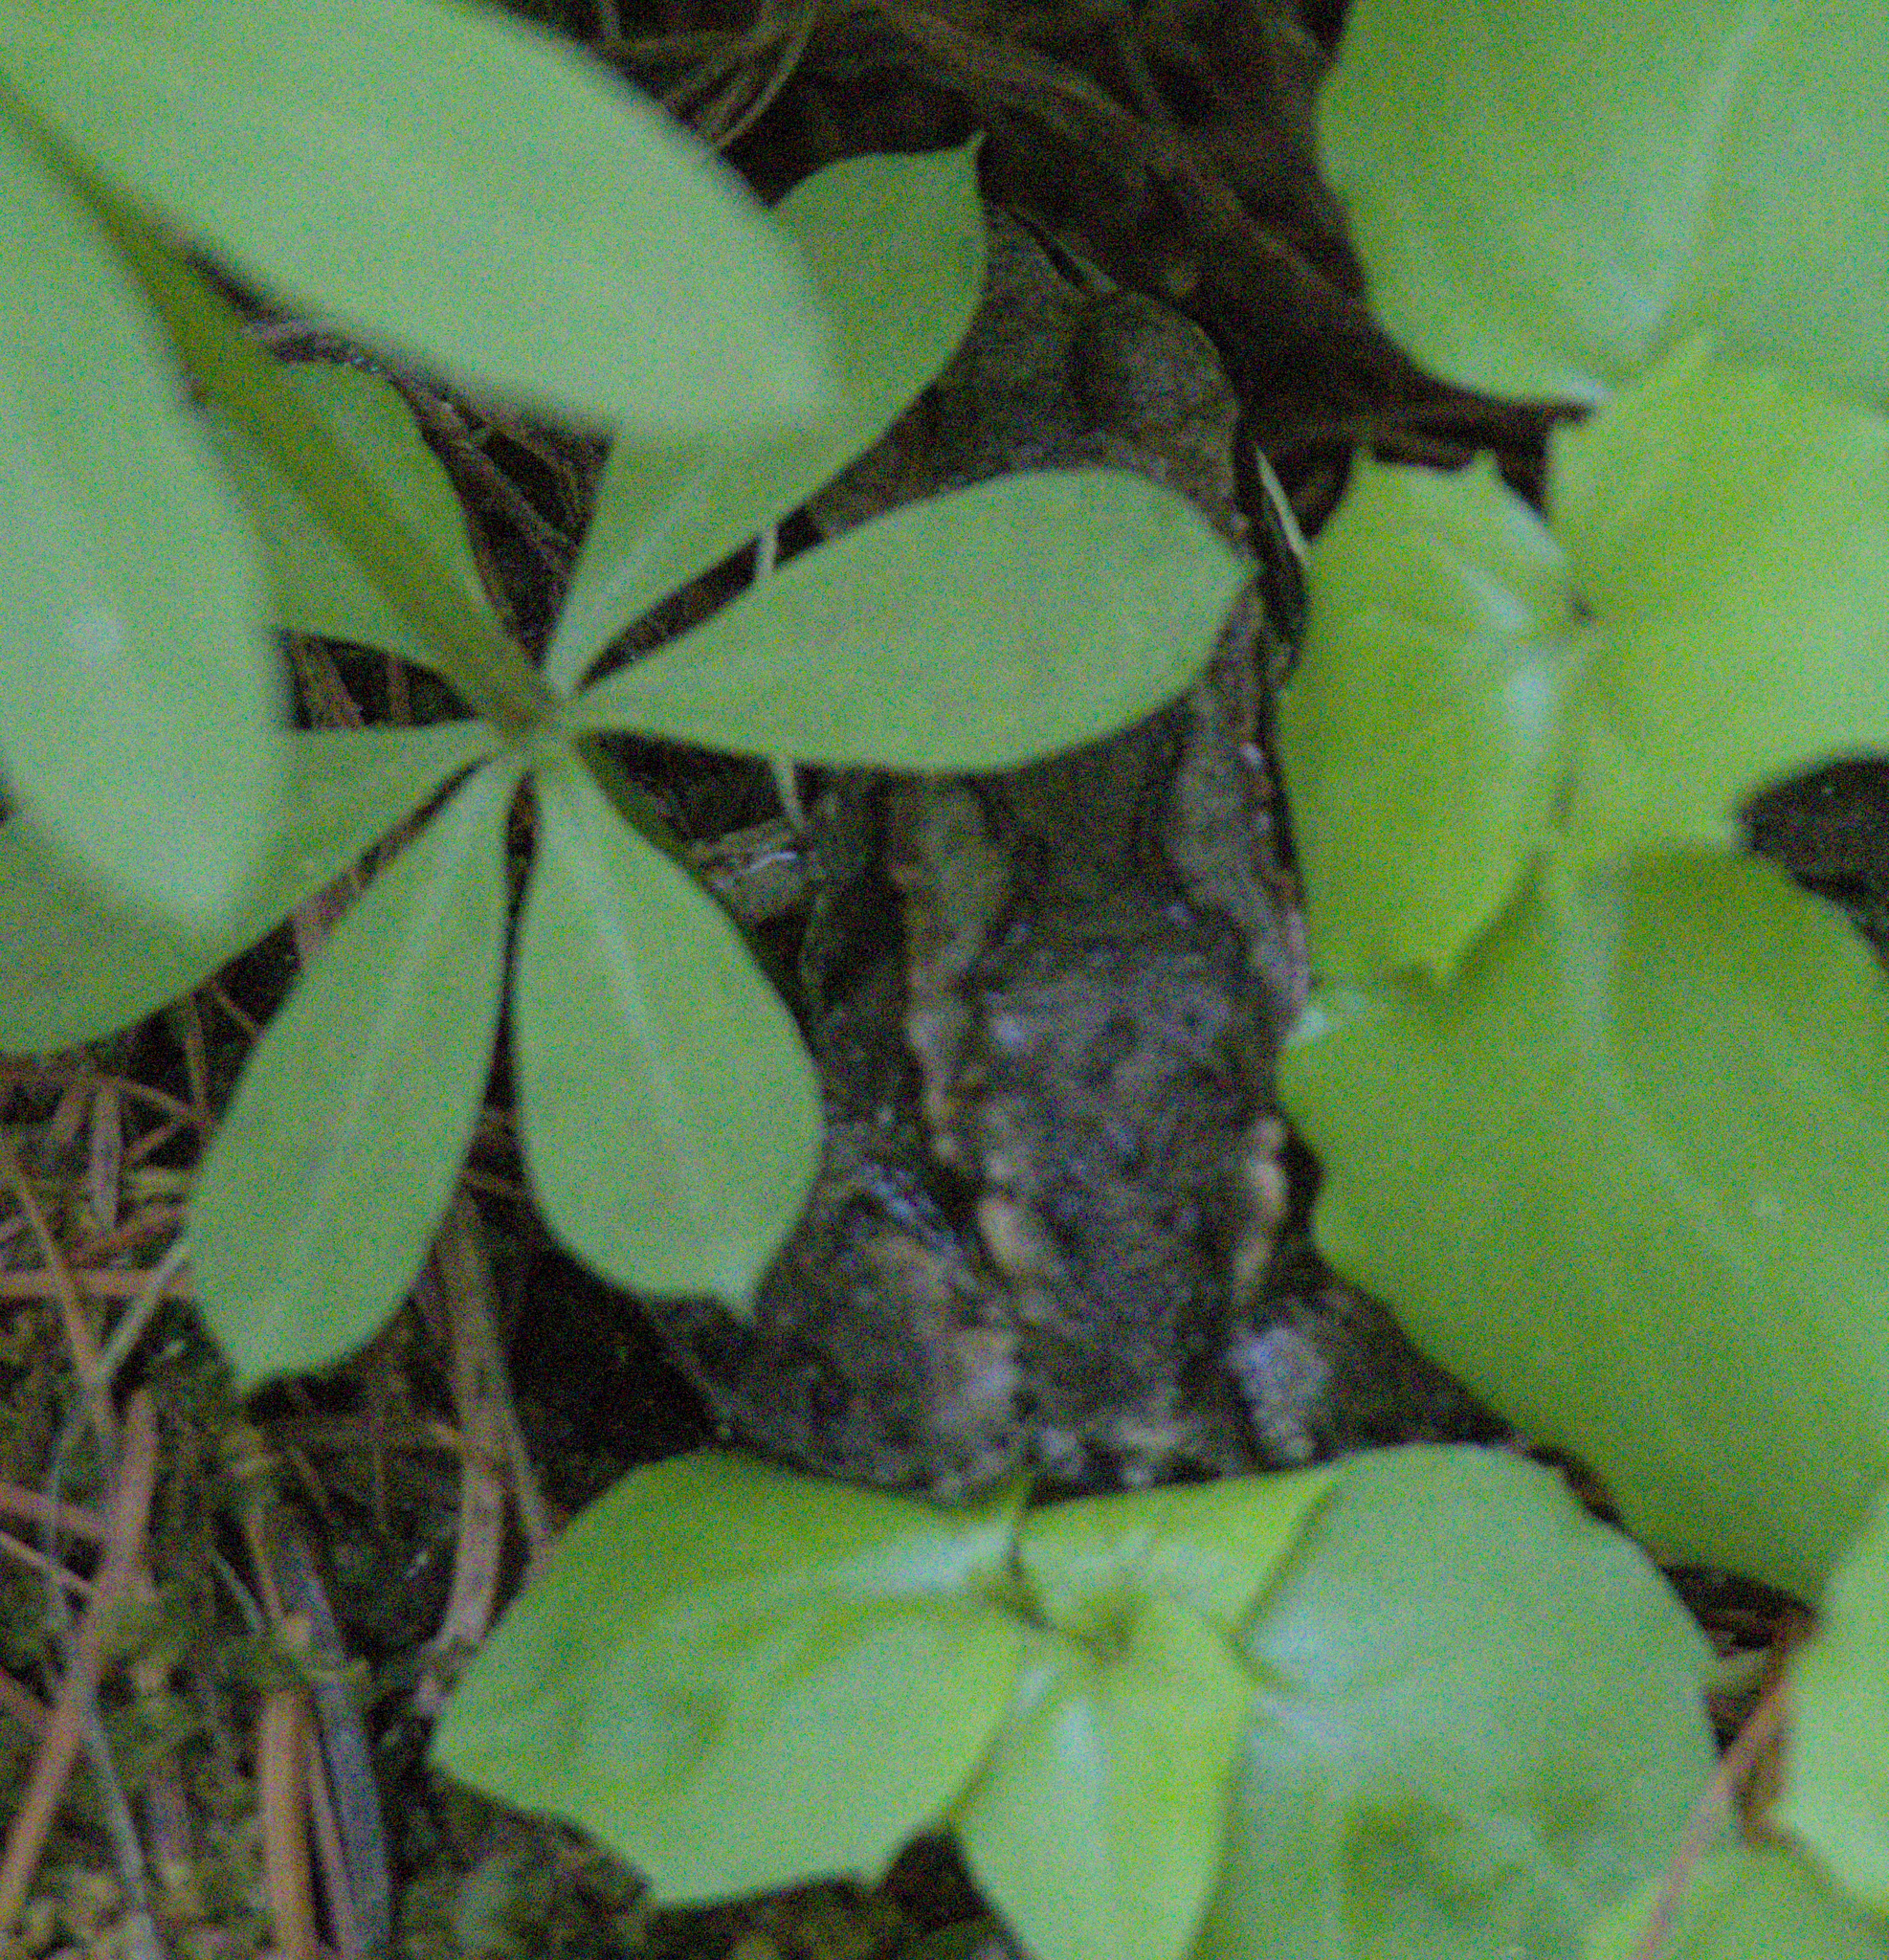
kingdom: Animalia
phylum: Chordata
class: Amphibia
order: Anura
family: Ranidae
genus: Lithobates
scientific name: Lithobates sylvaticus
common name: Wood frog
